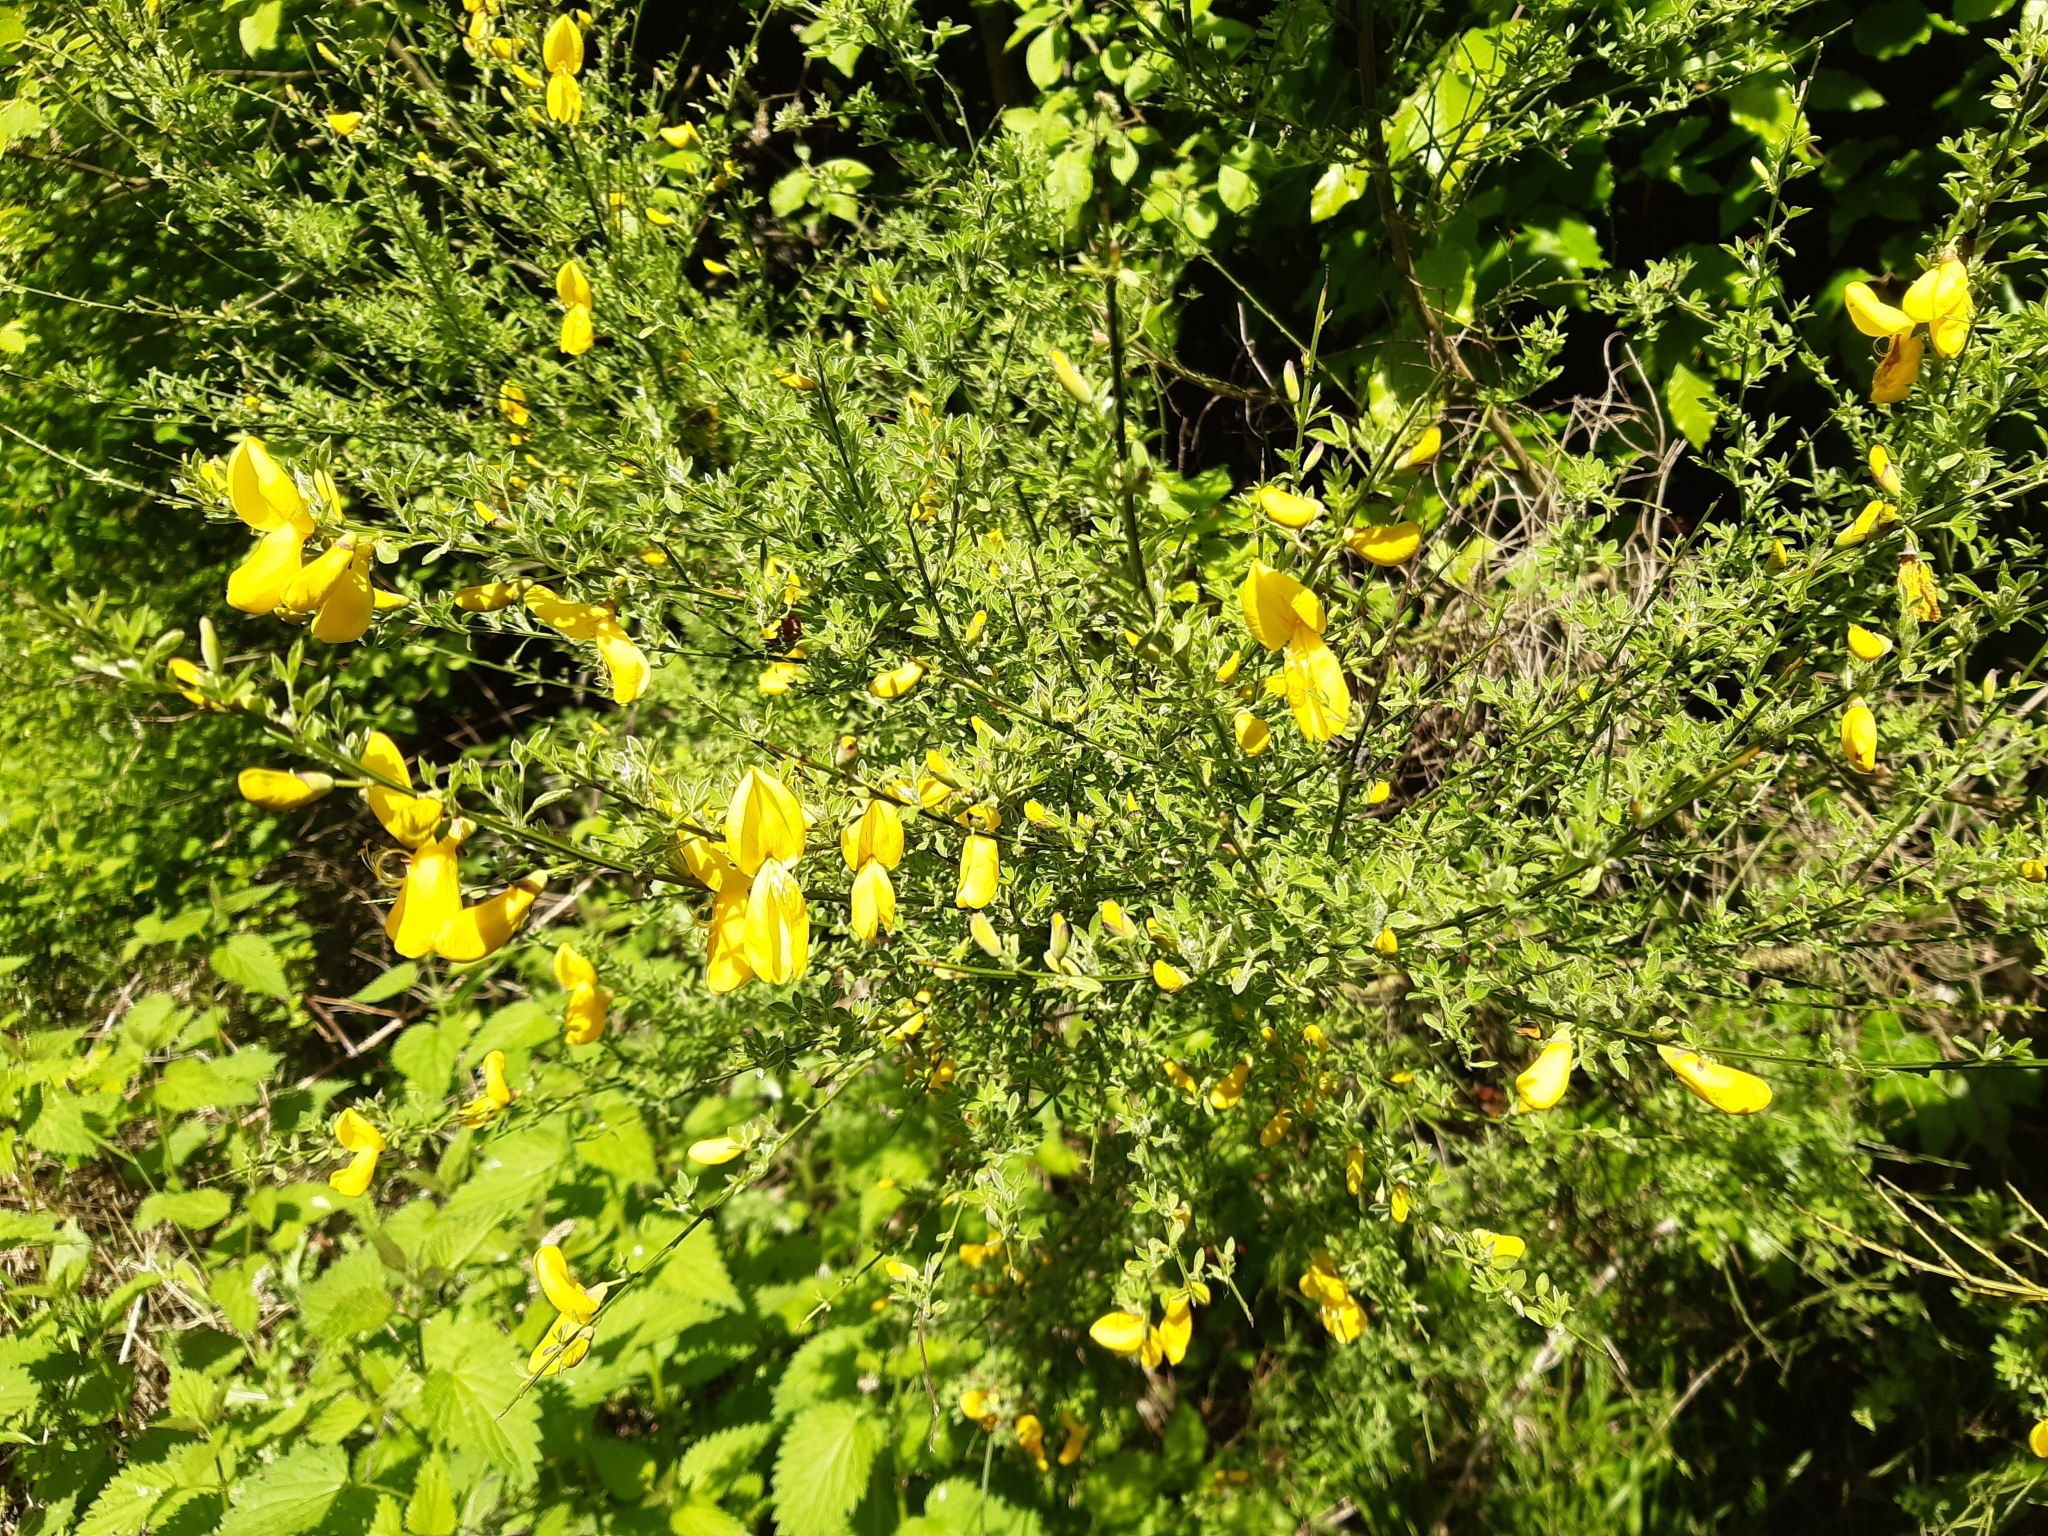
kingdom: Plantae
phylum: Tracheophyta
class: Magnoliopsida
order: Fabales
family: Fabaceae
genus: Cytisus
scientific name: Cytisus scoparius
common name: Scotch broom
